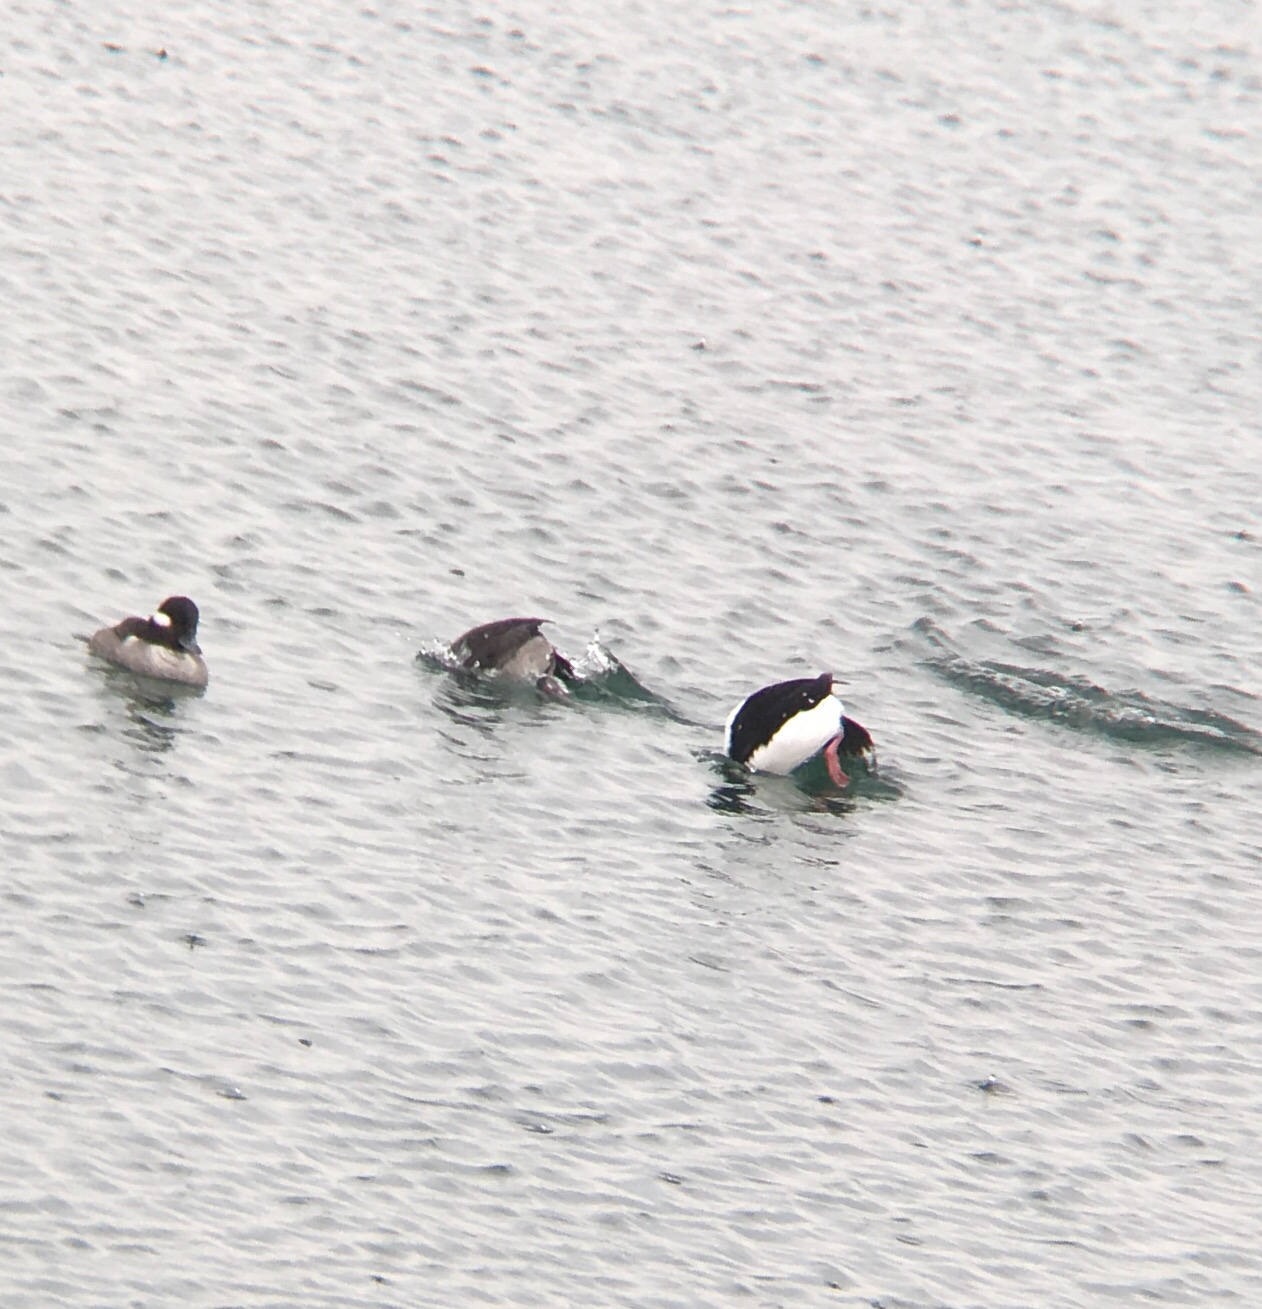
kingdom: Animalia
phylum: Chordata
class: Aves
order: Anseriformes
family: Anatidae
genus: Bucephala
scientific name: Bucephala albeola
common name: Bufflehead
